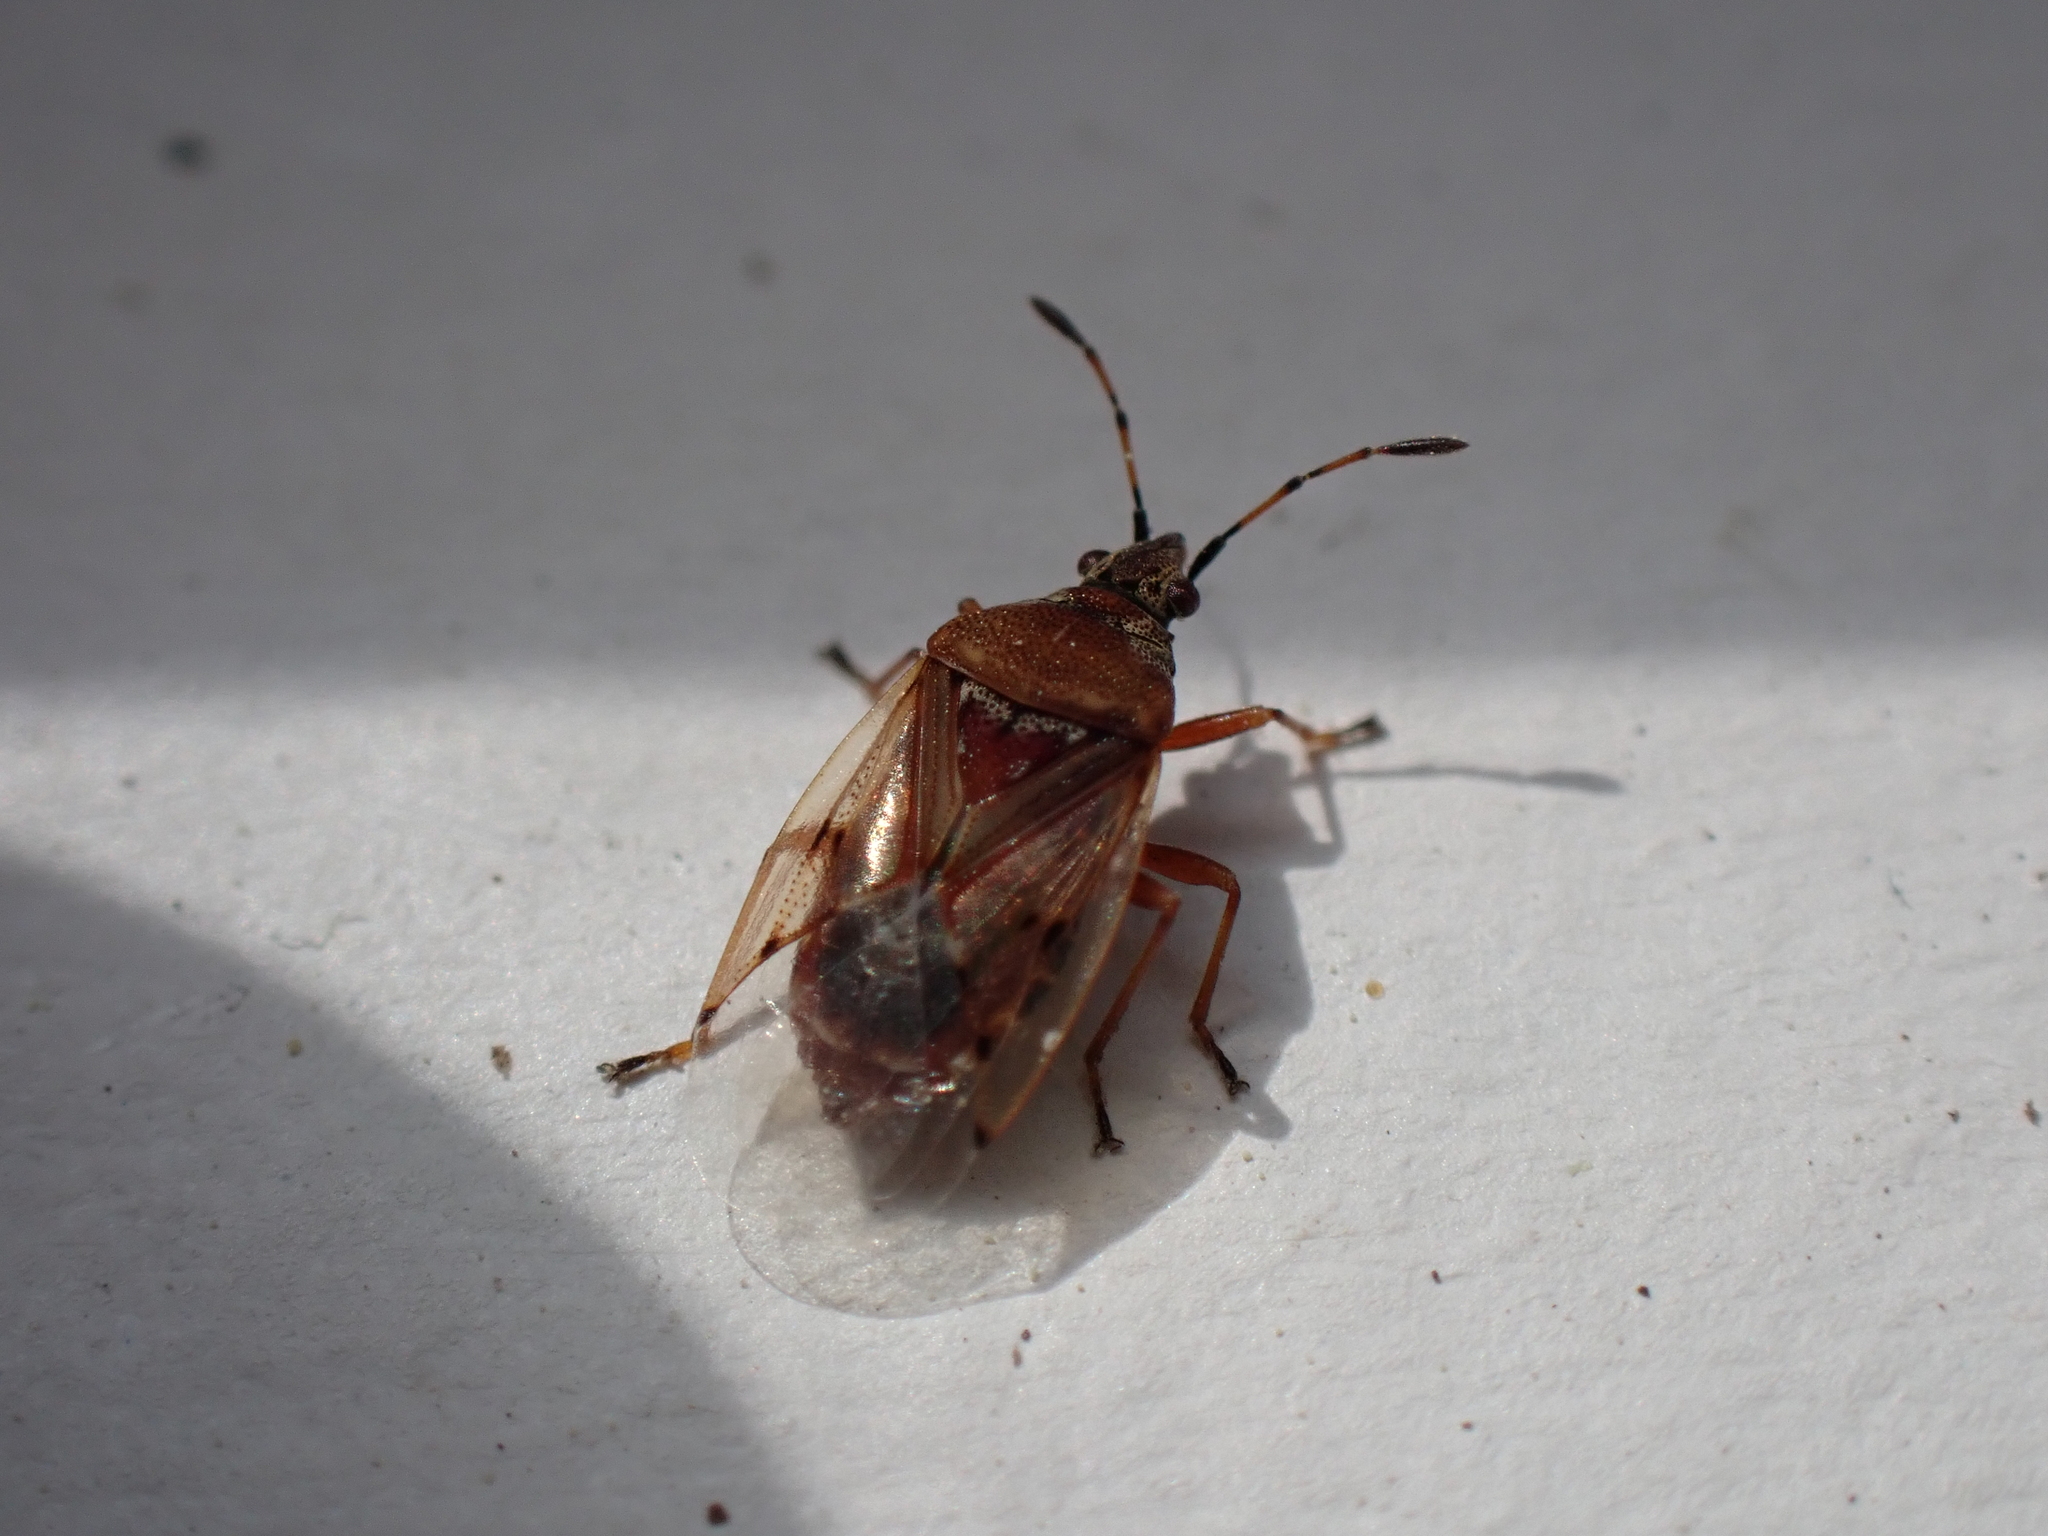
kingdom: Animalia
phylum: Arthropoda
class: Insecta
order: Hemiptera
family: Lygaeidae
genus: Kleidocerys
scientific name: Kleidocerys resedae
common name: Birch catkin bug
